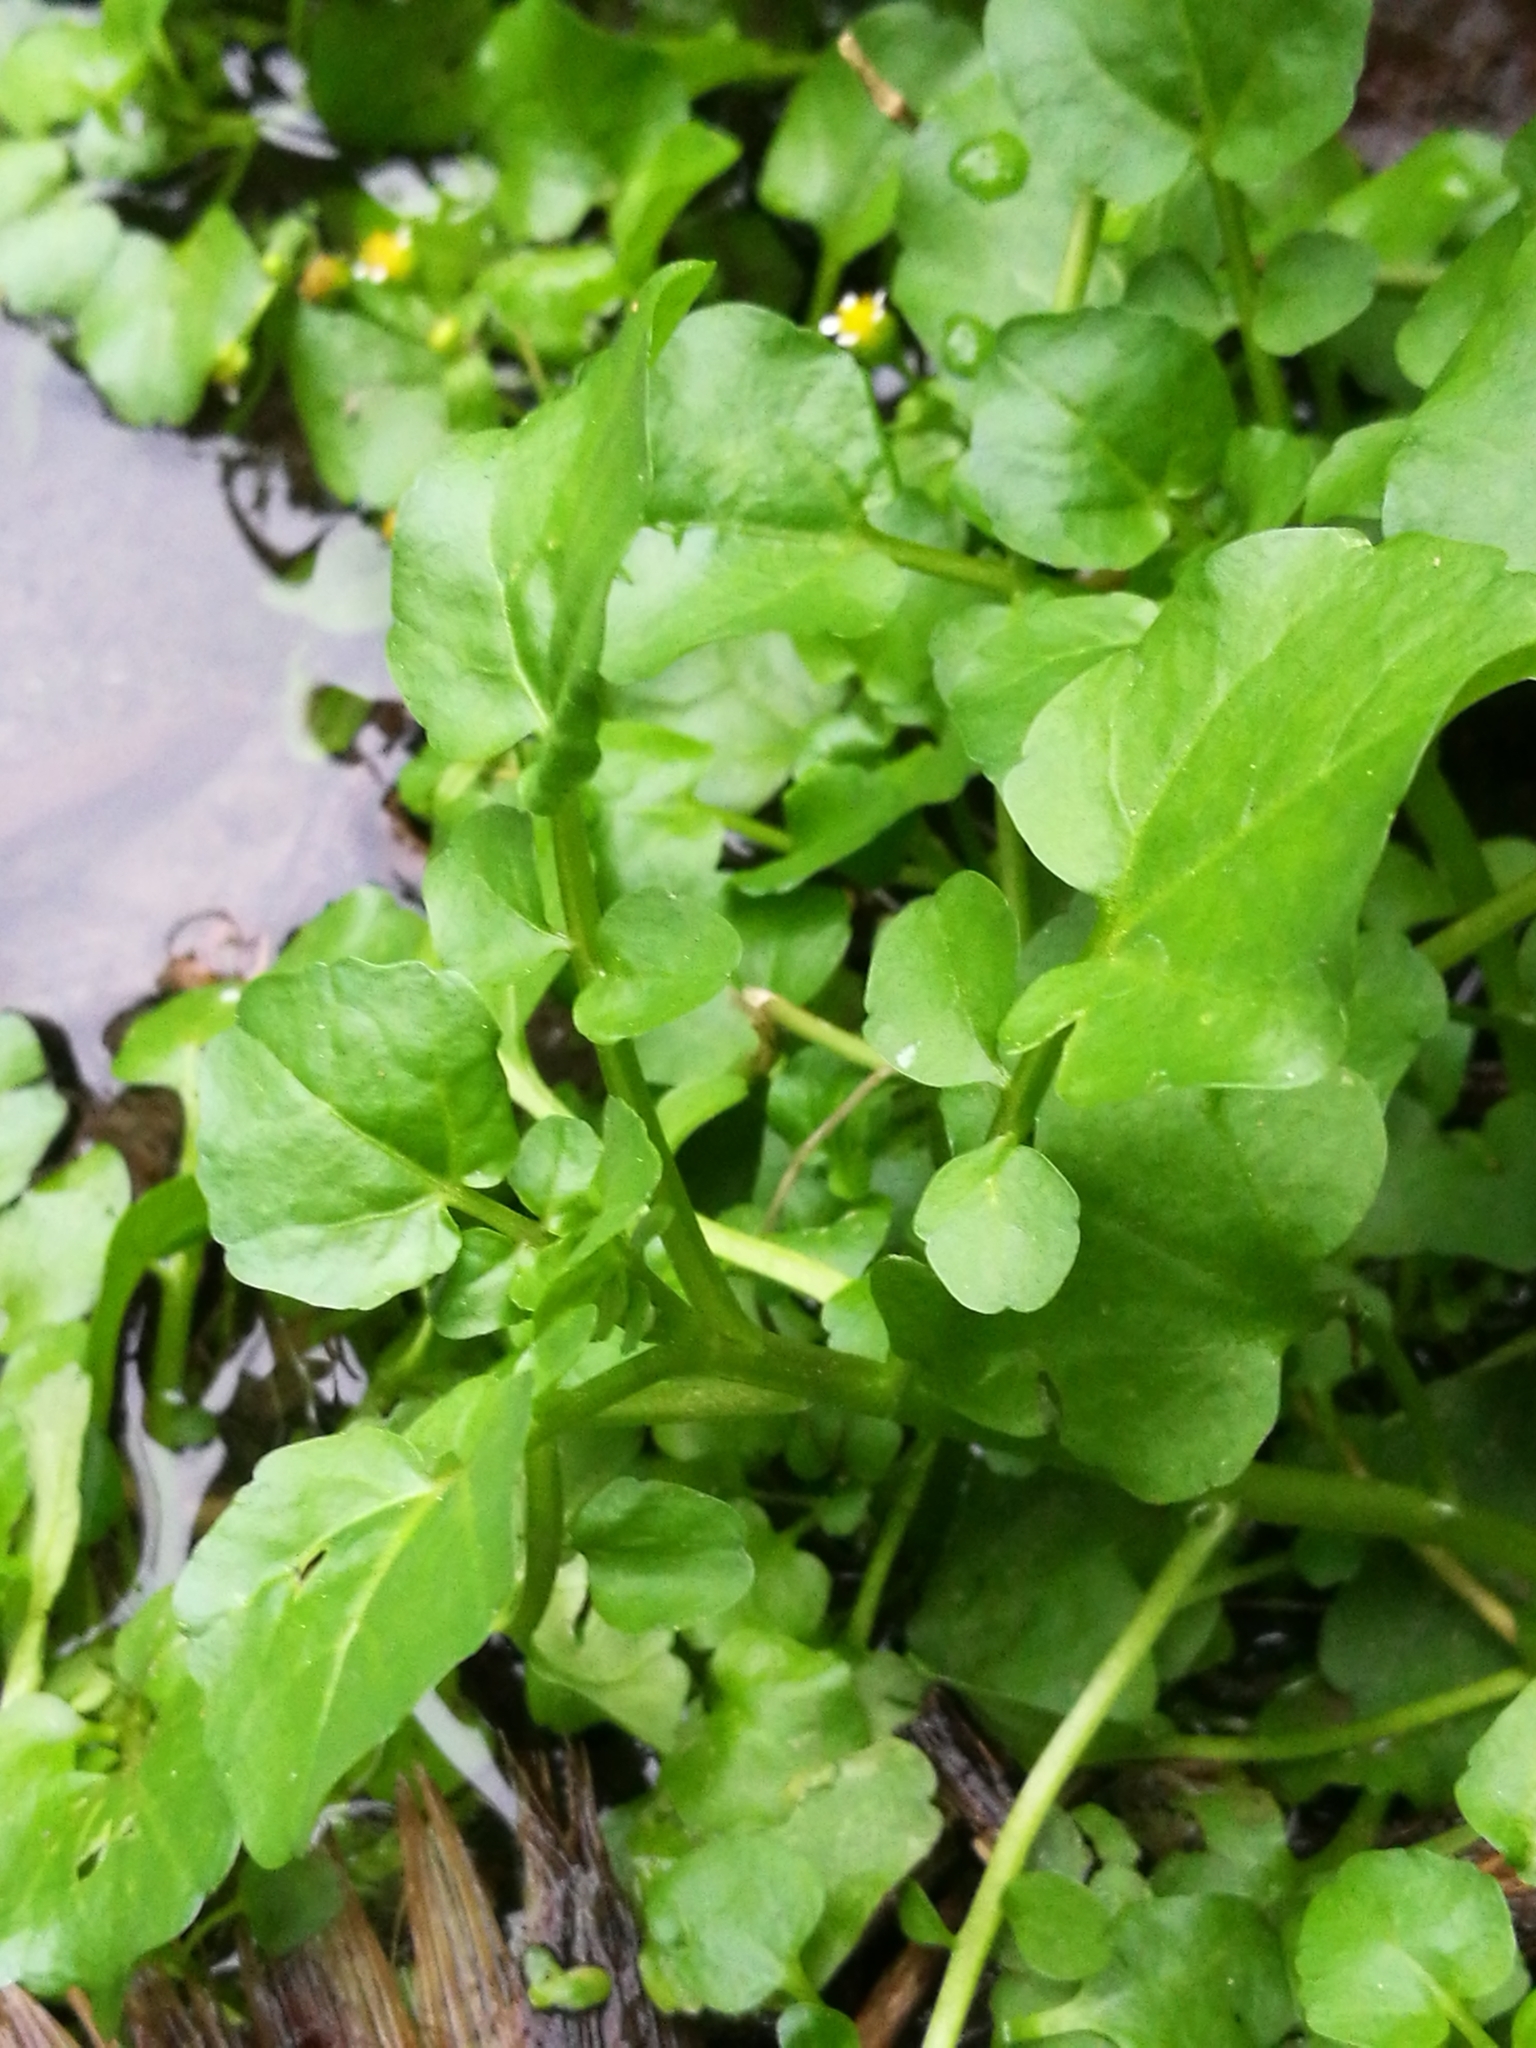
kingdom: Plantae
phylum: Tracheophyta
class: Magnoliopsida
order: Brassicales
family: Brassicaceae
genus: Nasturtium
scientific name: Nasturtium officinale
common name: Watercress
